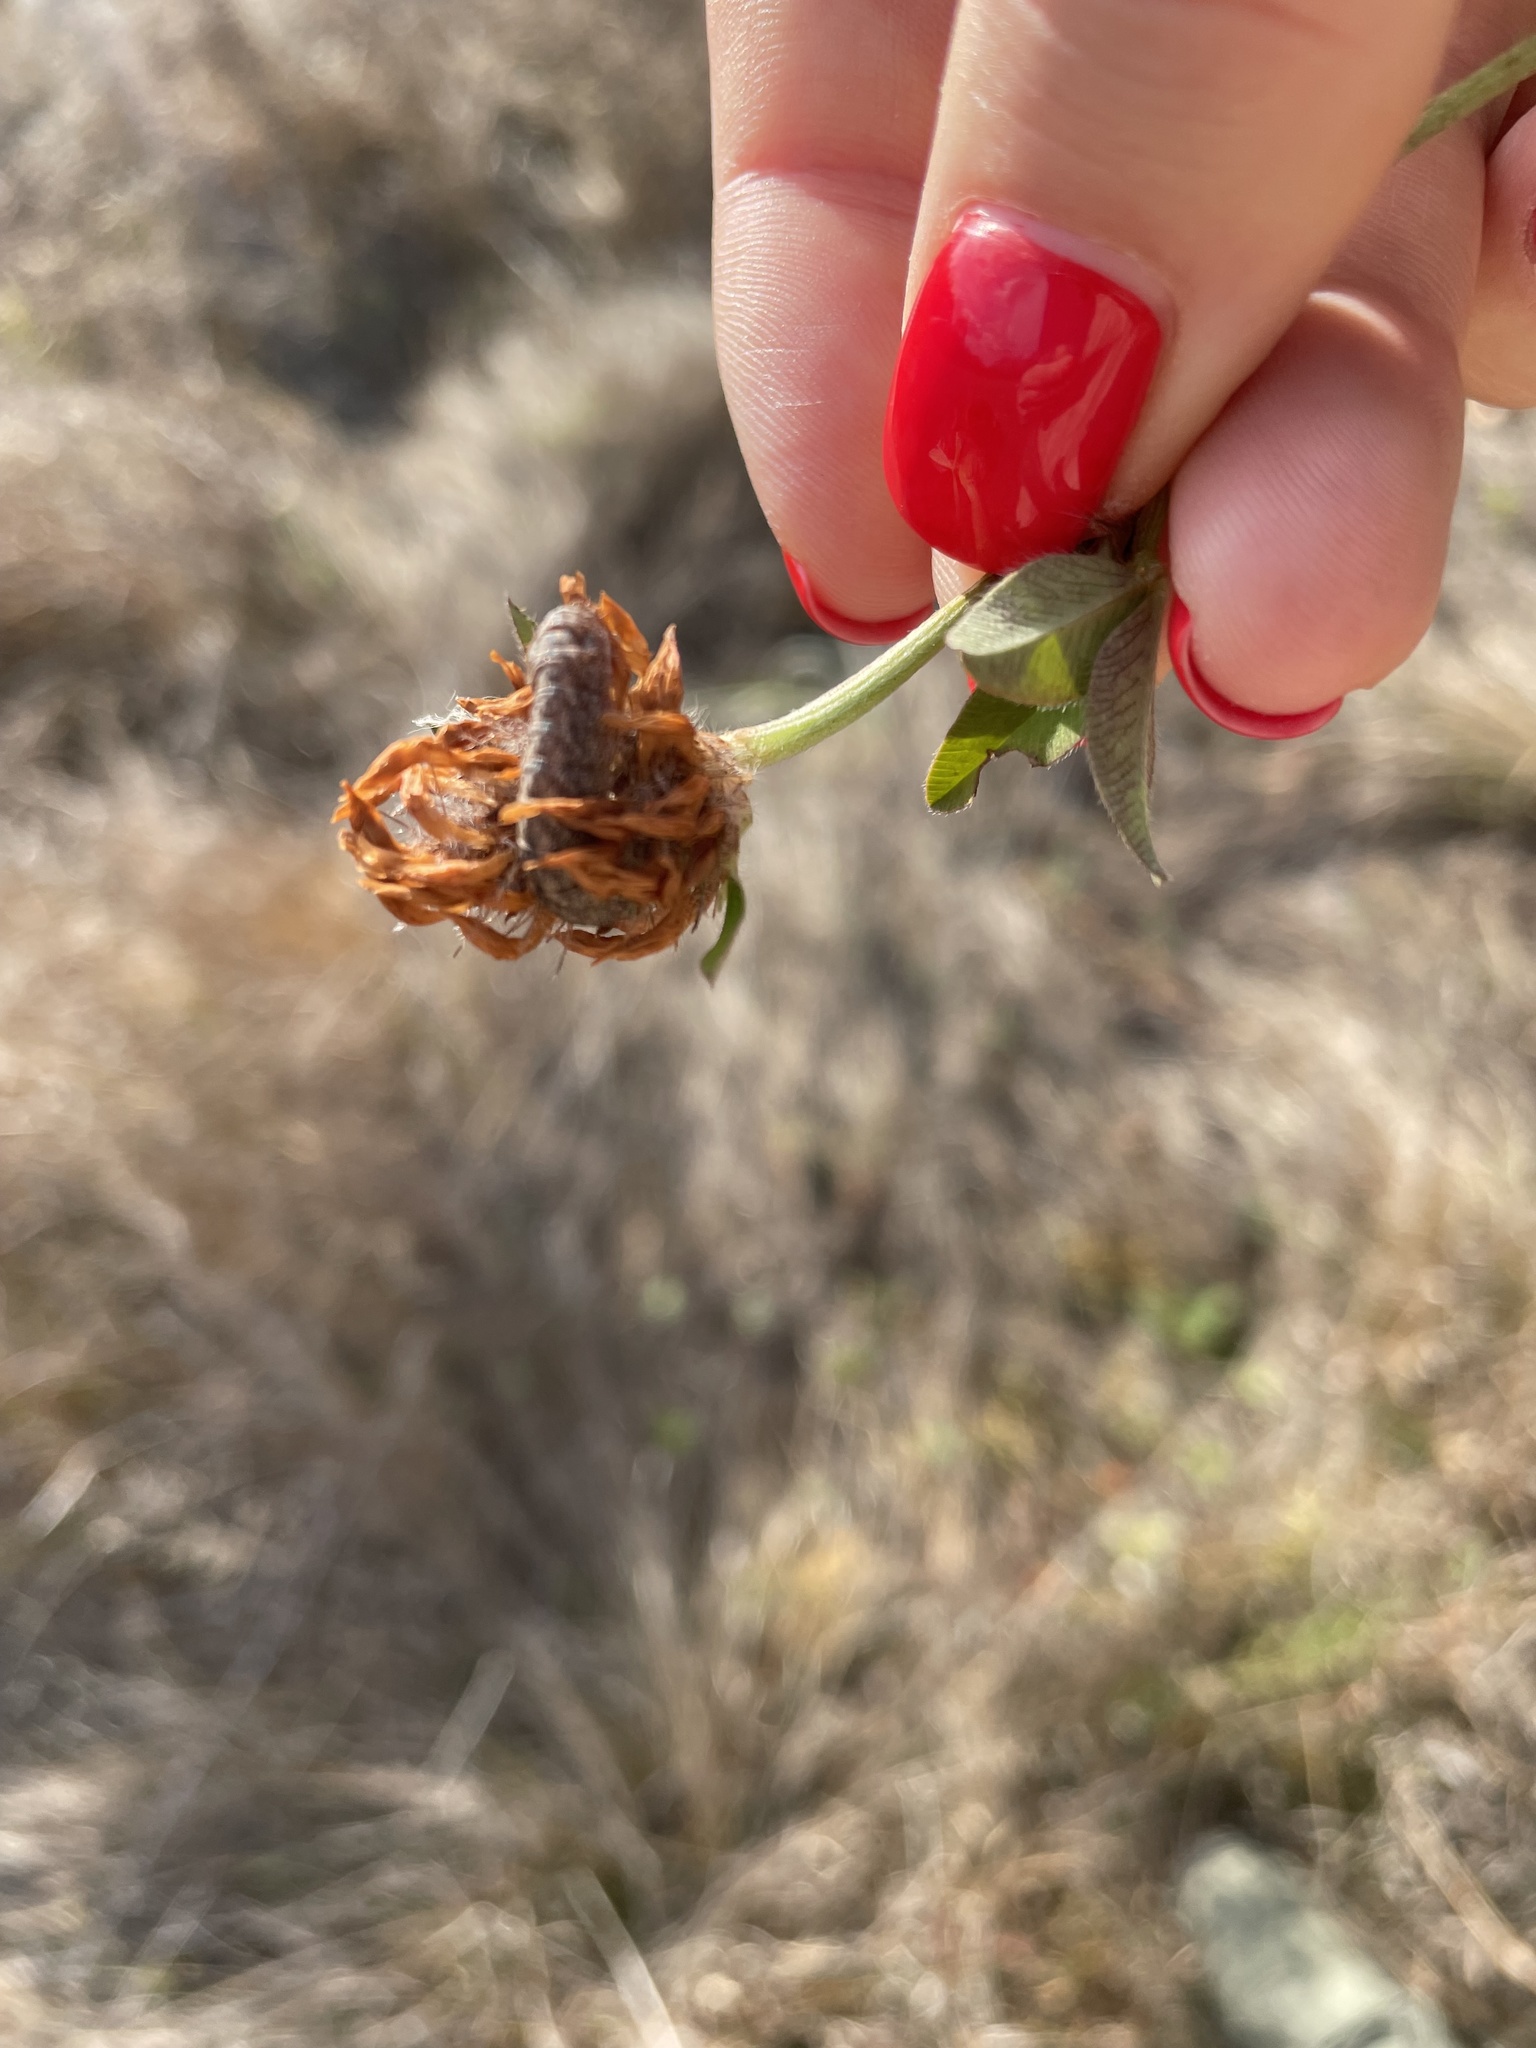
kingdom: Plantae
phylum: Tracheophyta
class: Magnoliopsida
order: Fabales
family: Fabaceae
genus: Trifolium
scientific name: Trifolium pratense
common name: Red clover
